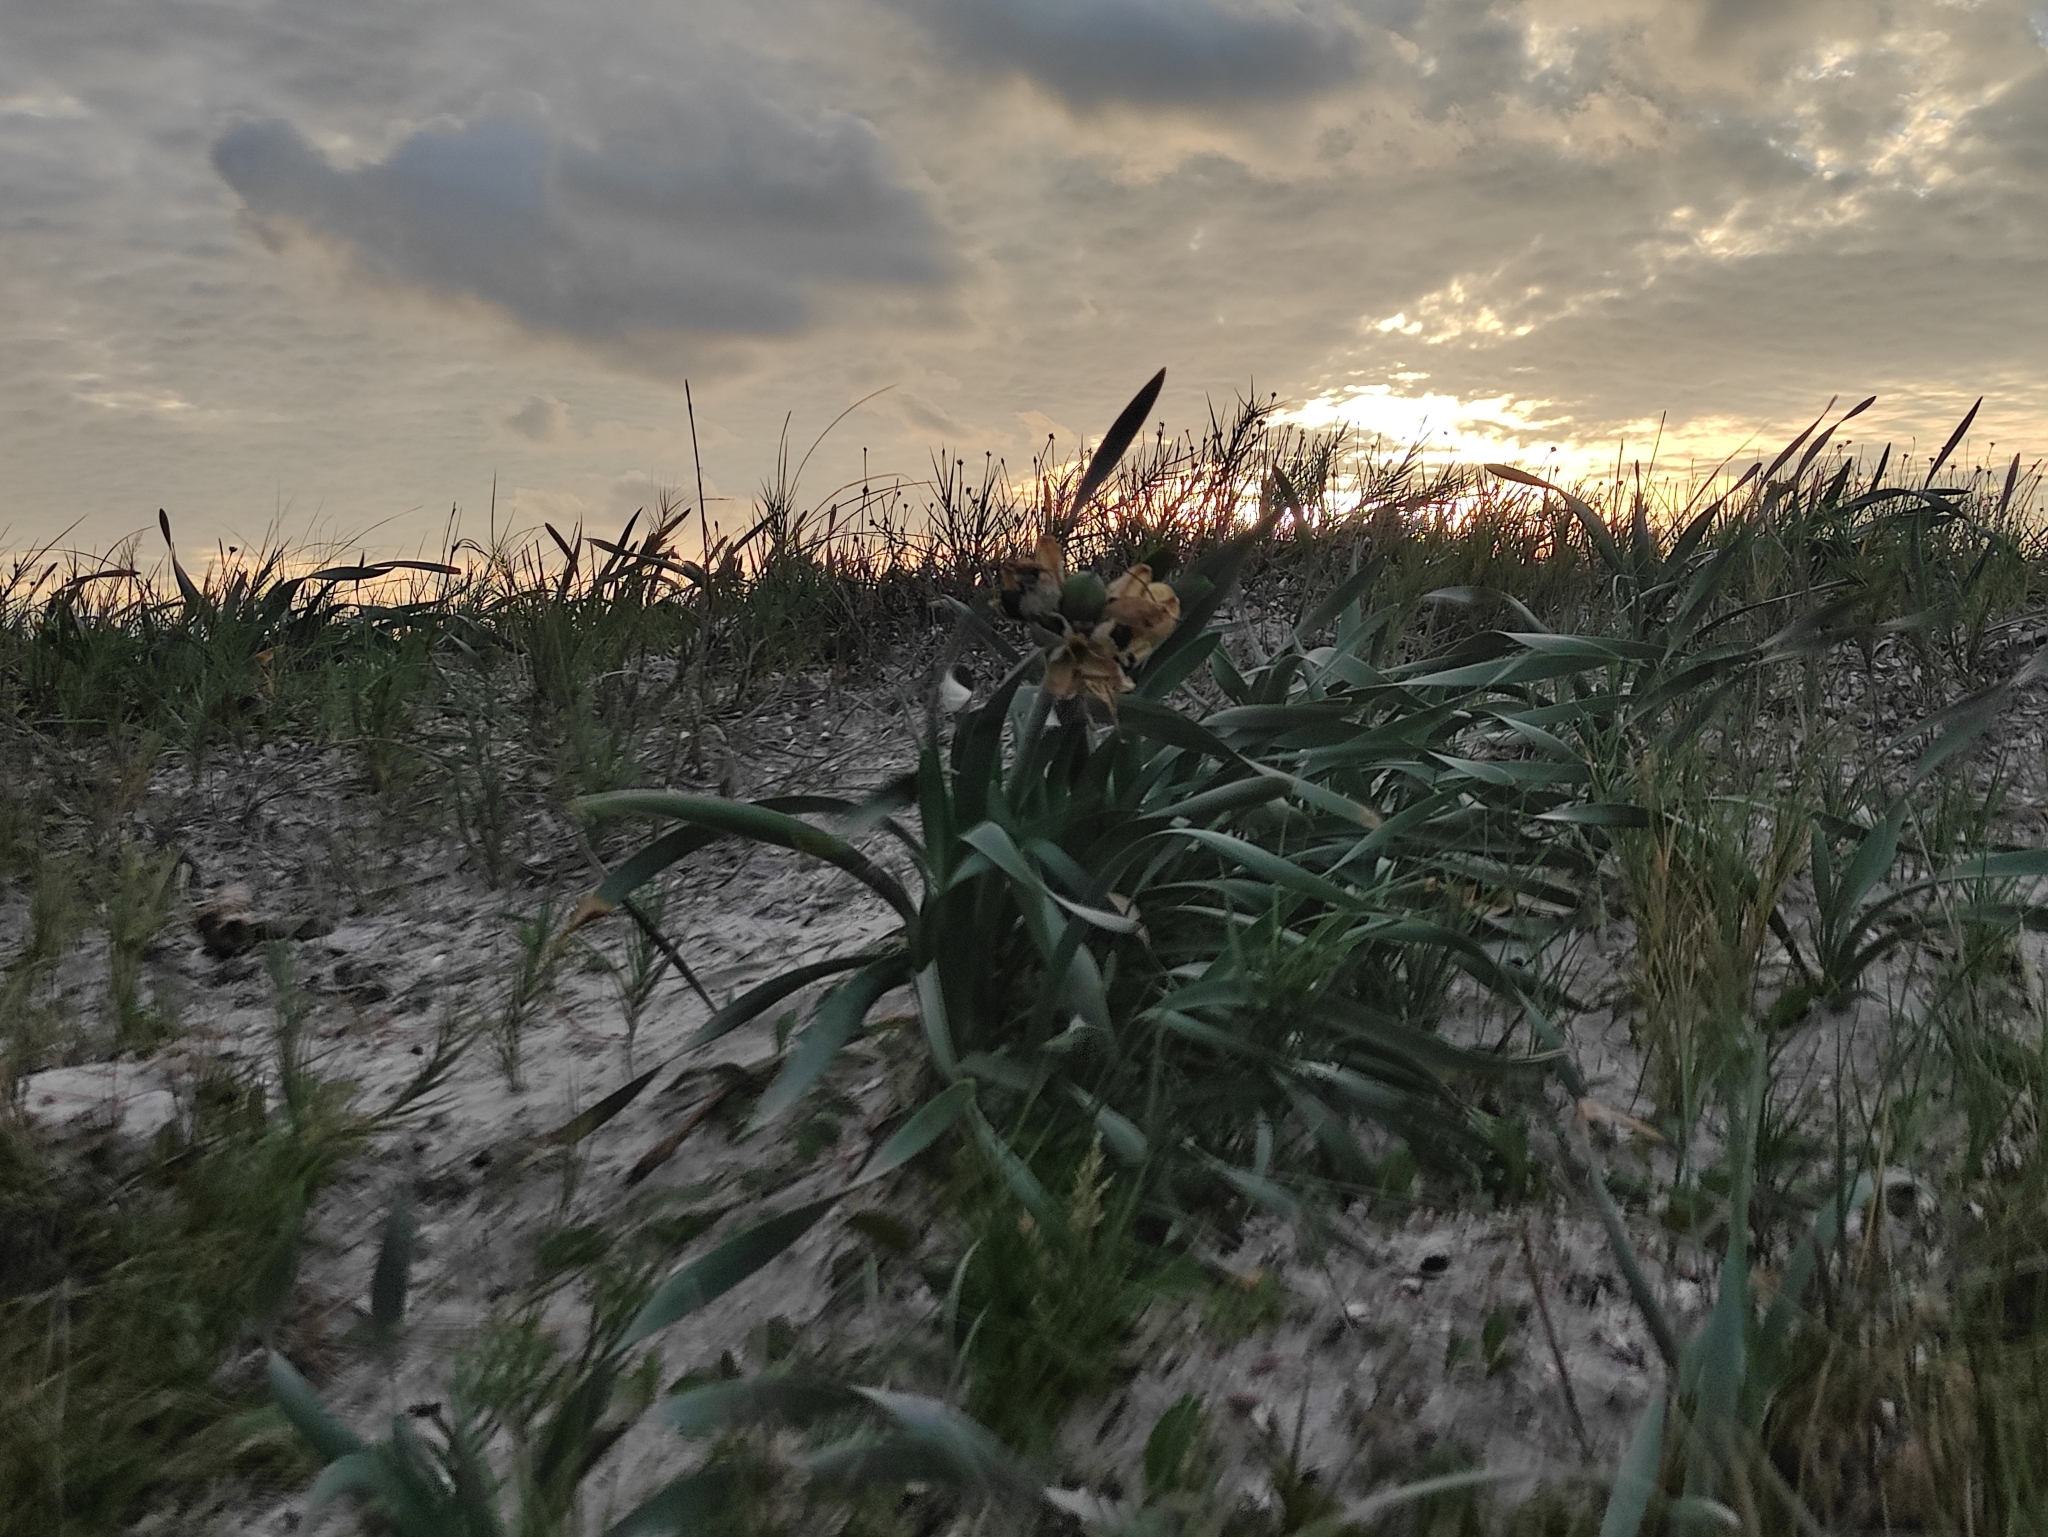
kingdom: Plantae
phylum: Tracheophyta
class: Liliopsida
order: Asparagales
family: Amaryllidaceae
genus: Pancratium
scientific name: Pancratium maritimum
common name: Sea-daffodil
